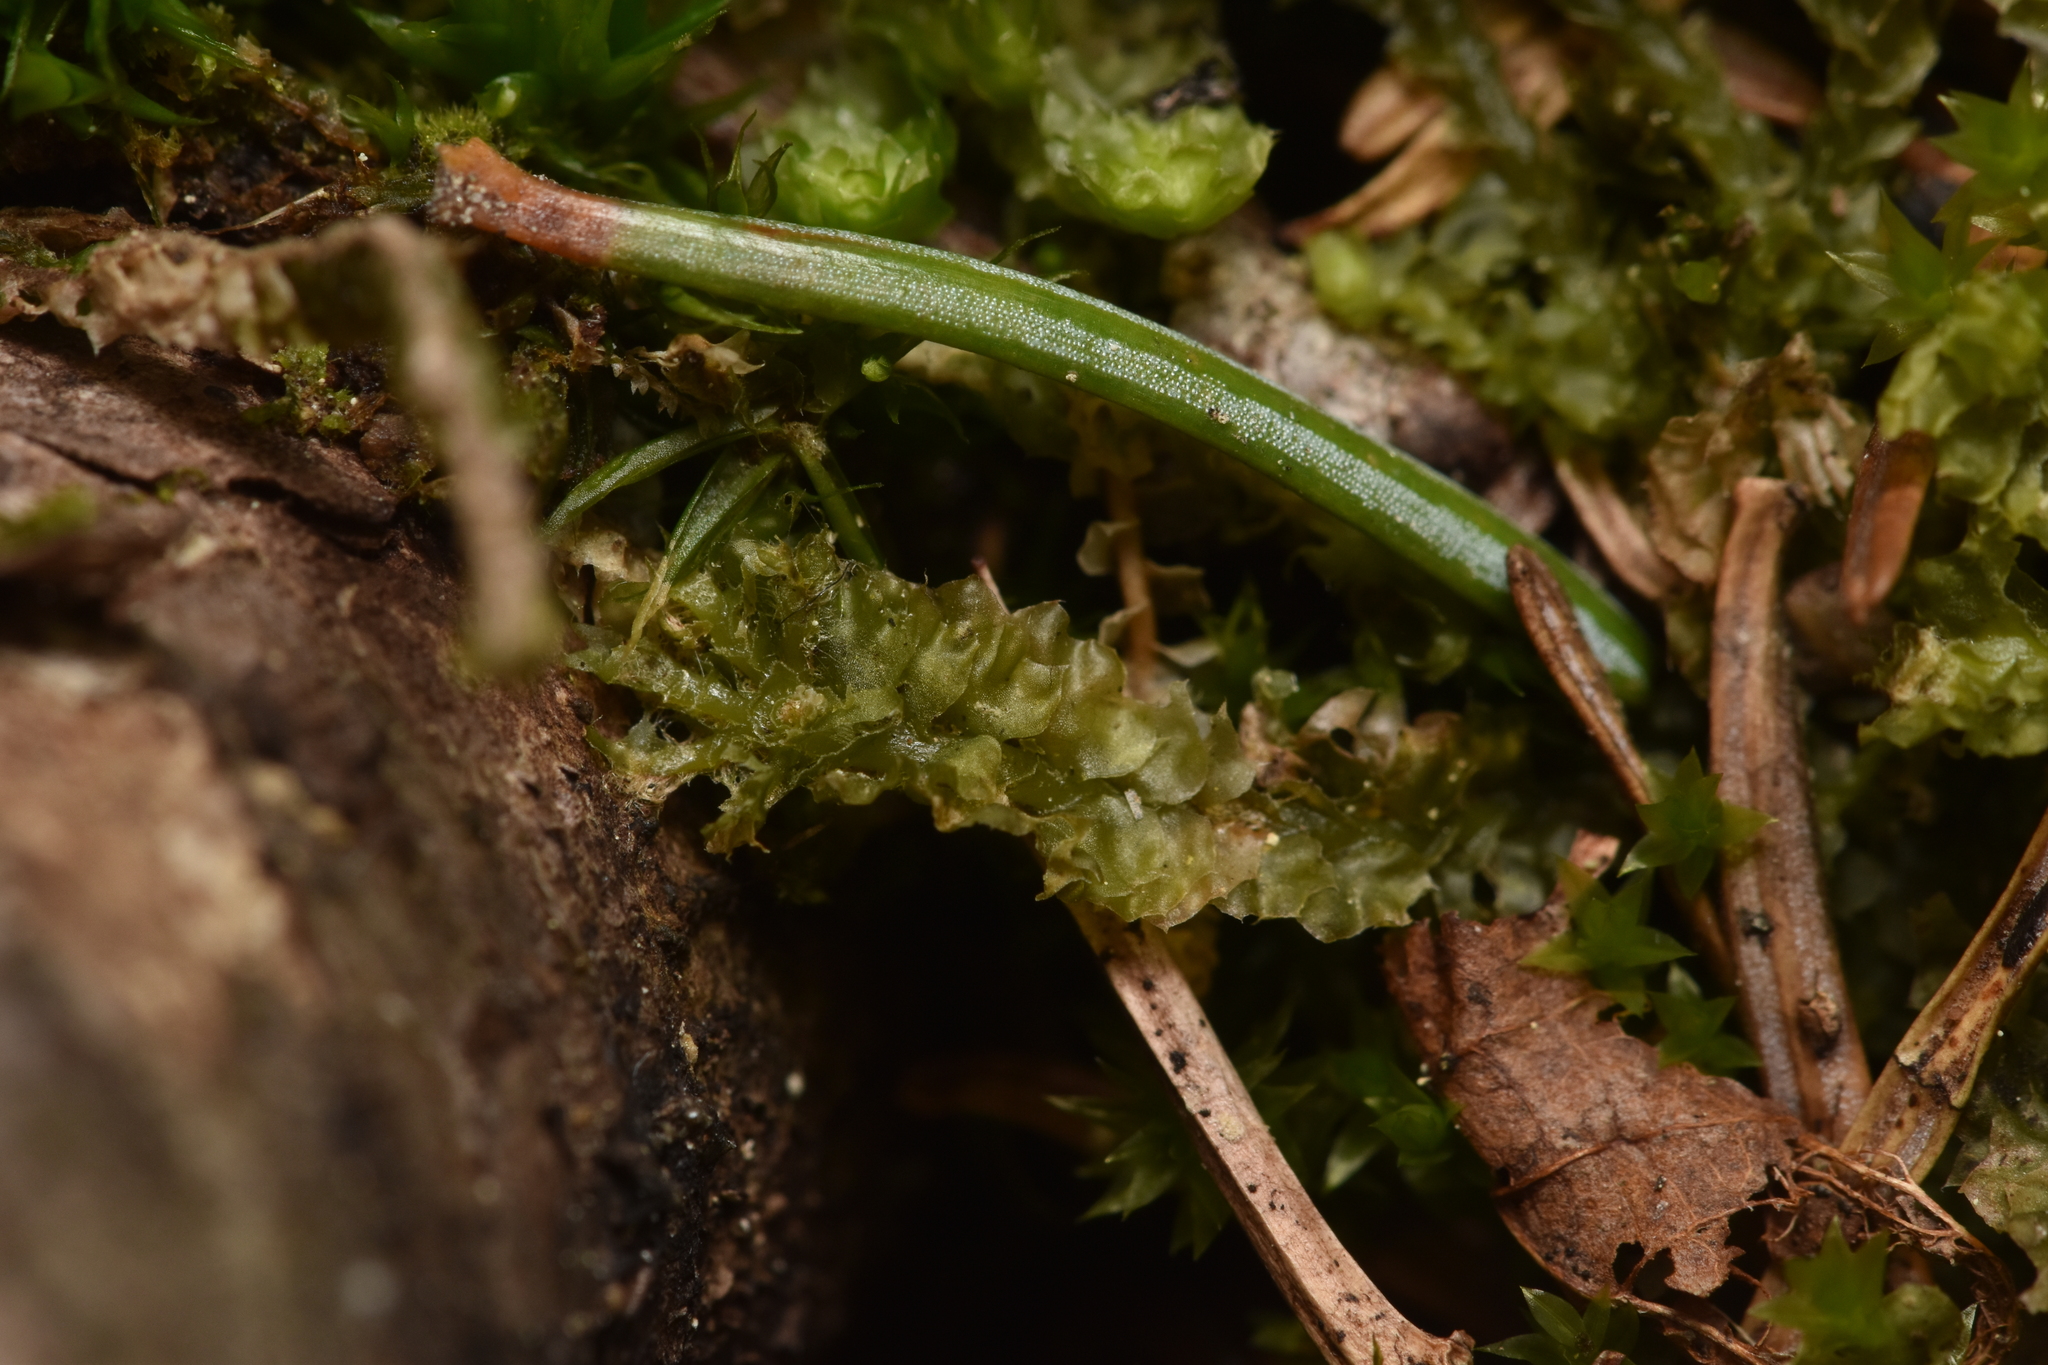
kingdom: Plantae
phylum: Marchantiophyta
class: Jungermanniopsida
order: Jungermanniales
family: Anastrophyllaceae
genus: Barbilophozia
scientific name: Barbilophozia lycopodioides
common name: Greater pawwort
